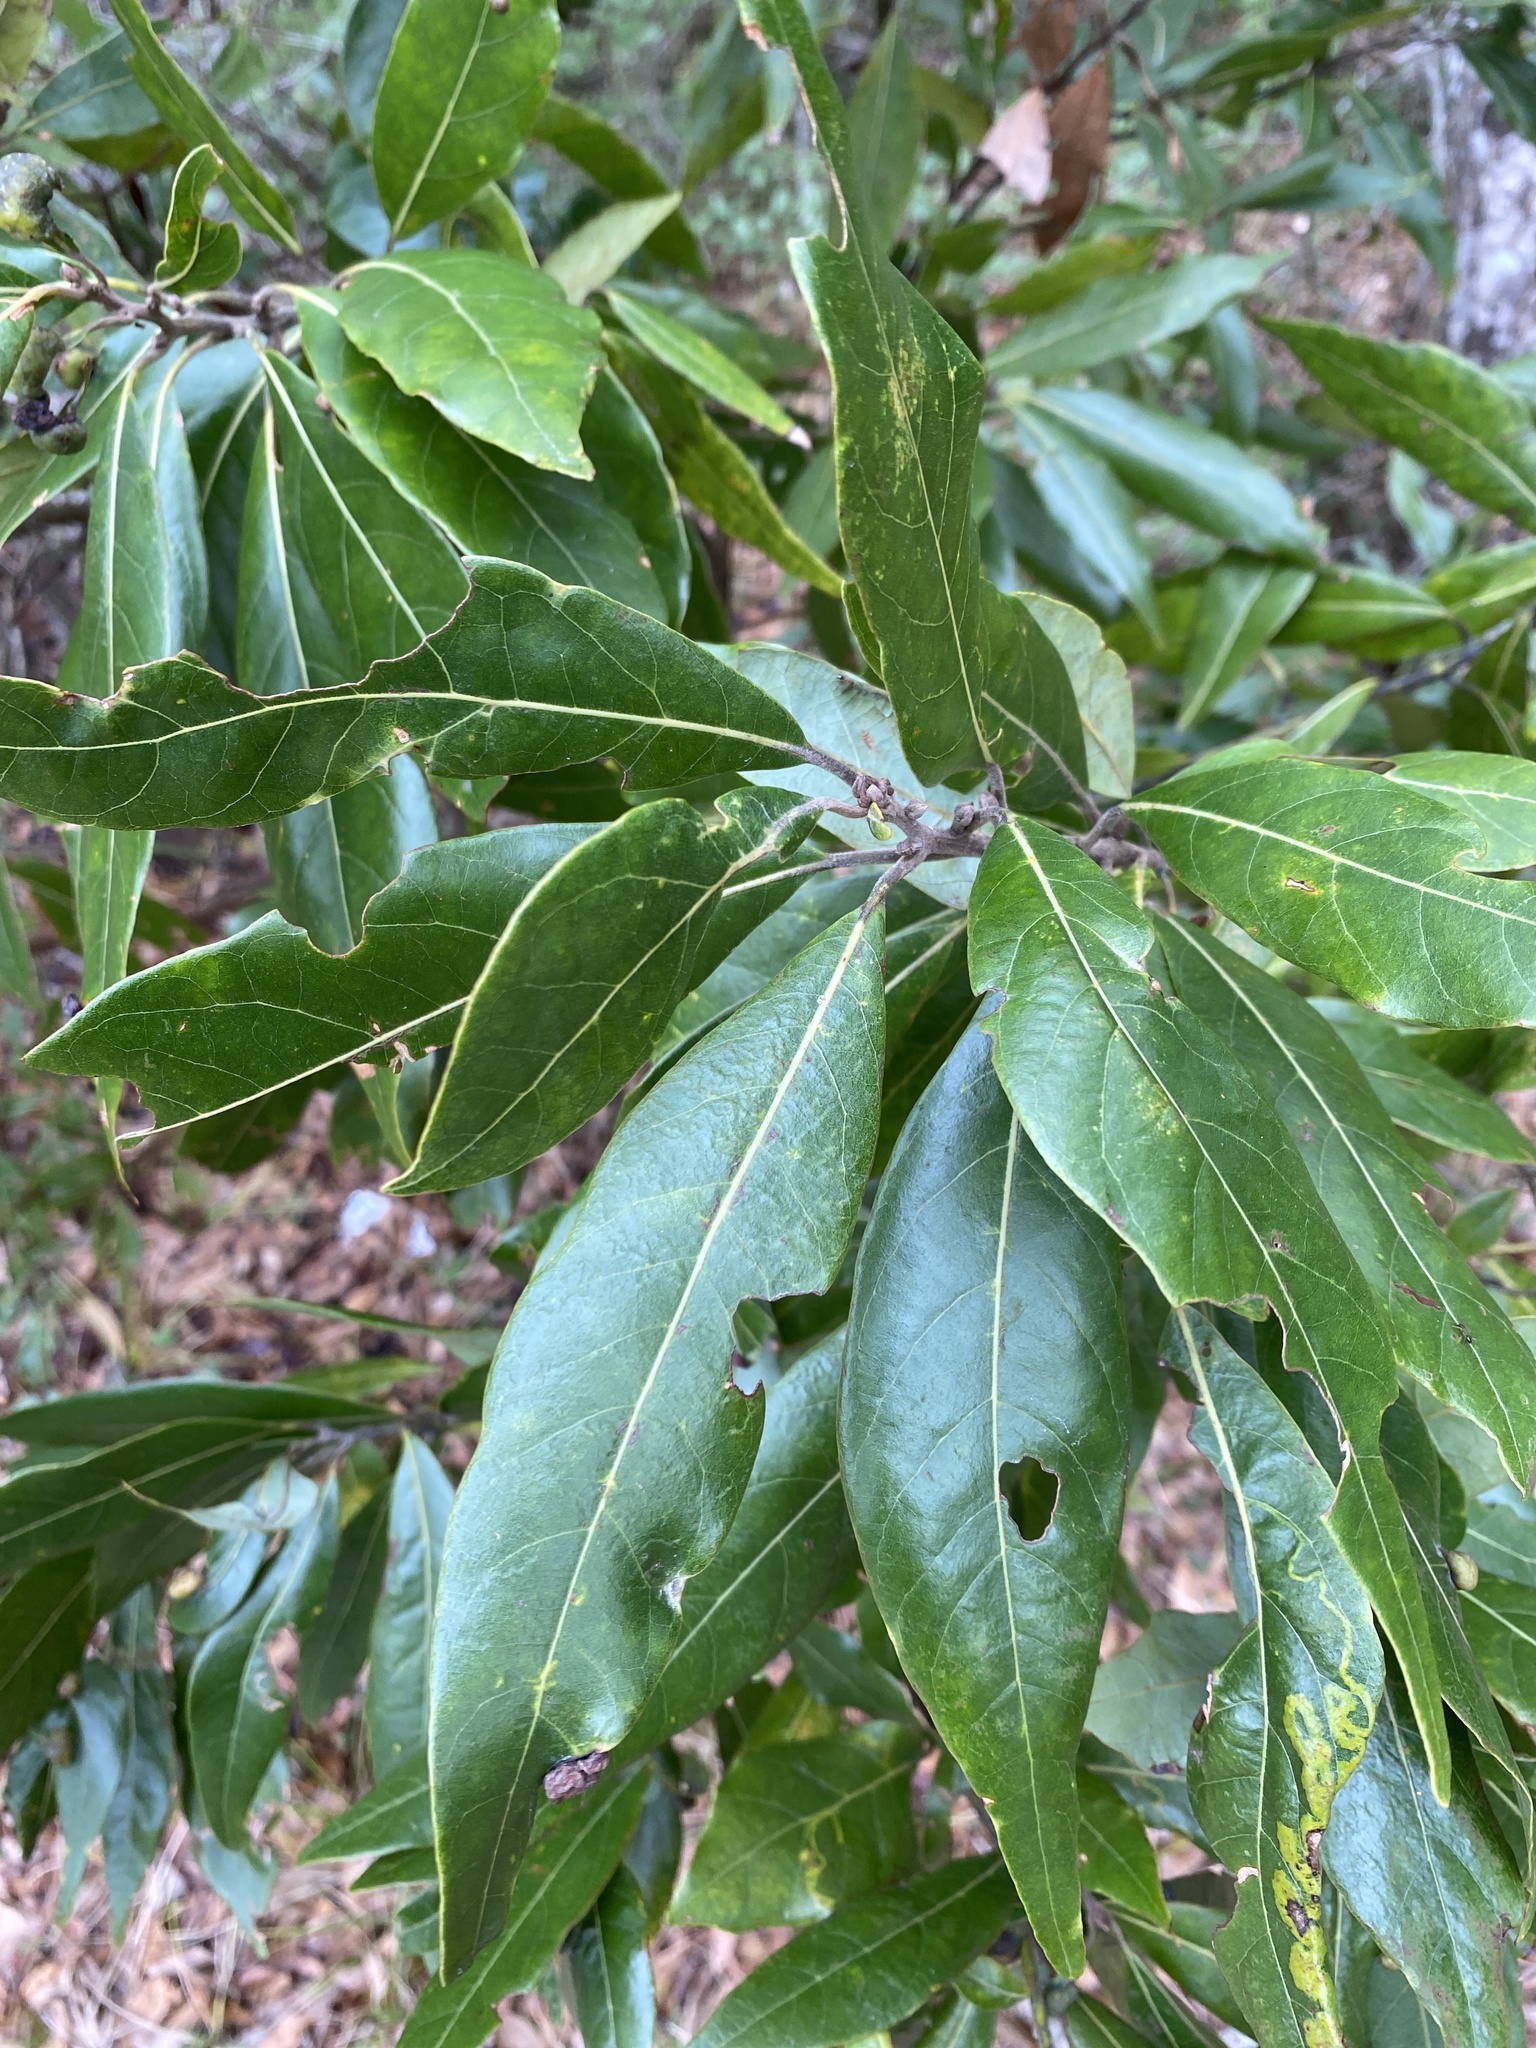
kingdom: Plantae
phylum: Tracheophyta
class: Magnoliopsida
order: Laurales
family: Lauraceae
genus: Persea
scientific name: Persea palustris
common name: Swampbay
